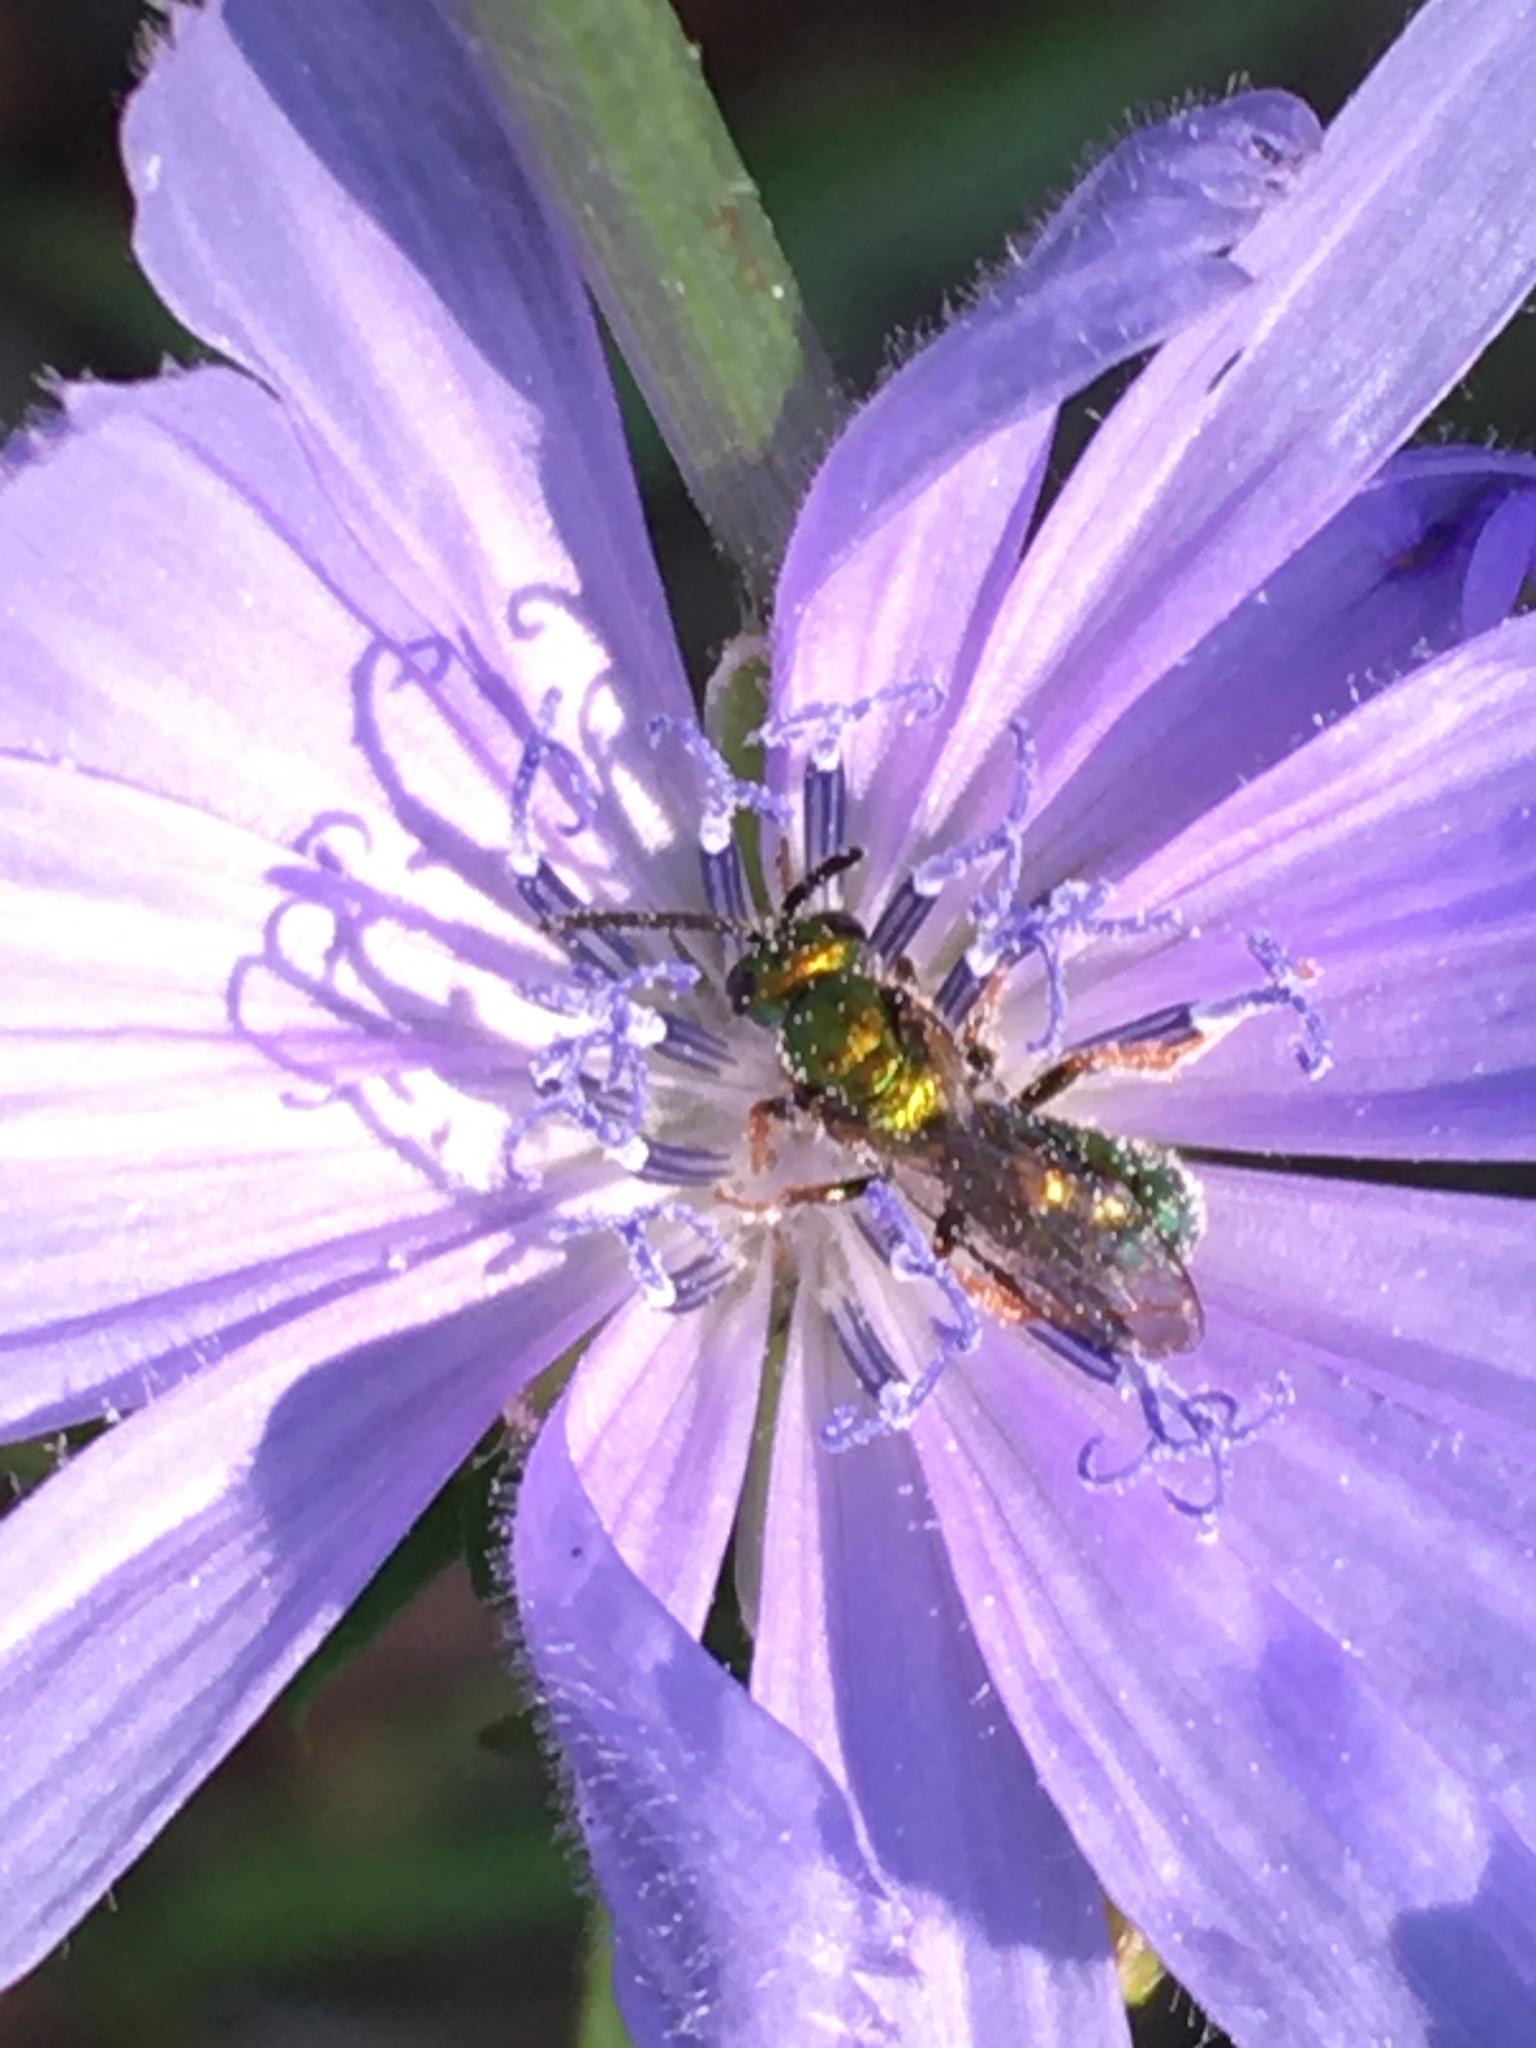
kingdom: Plantae
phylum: Tracheophyta
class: Magnoliopsida
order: Asterales
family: Asteraceae
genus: Cichorium
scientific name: Cichorium intybus
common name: Chicory
